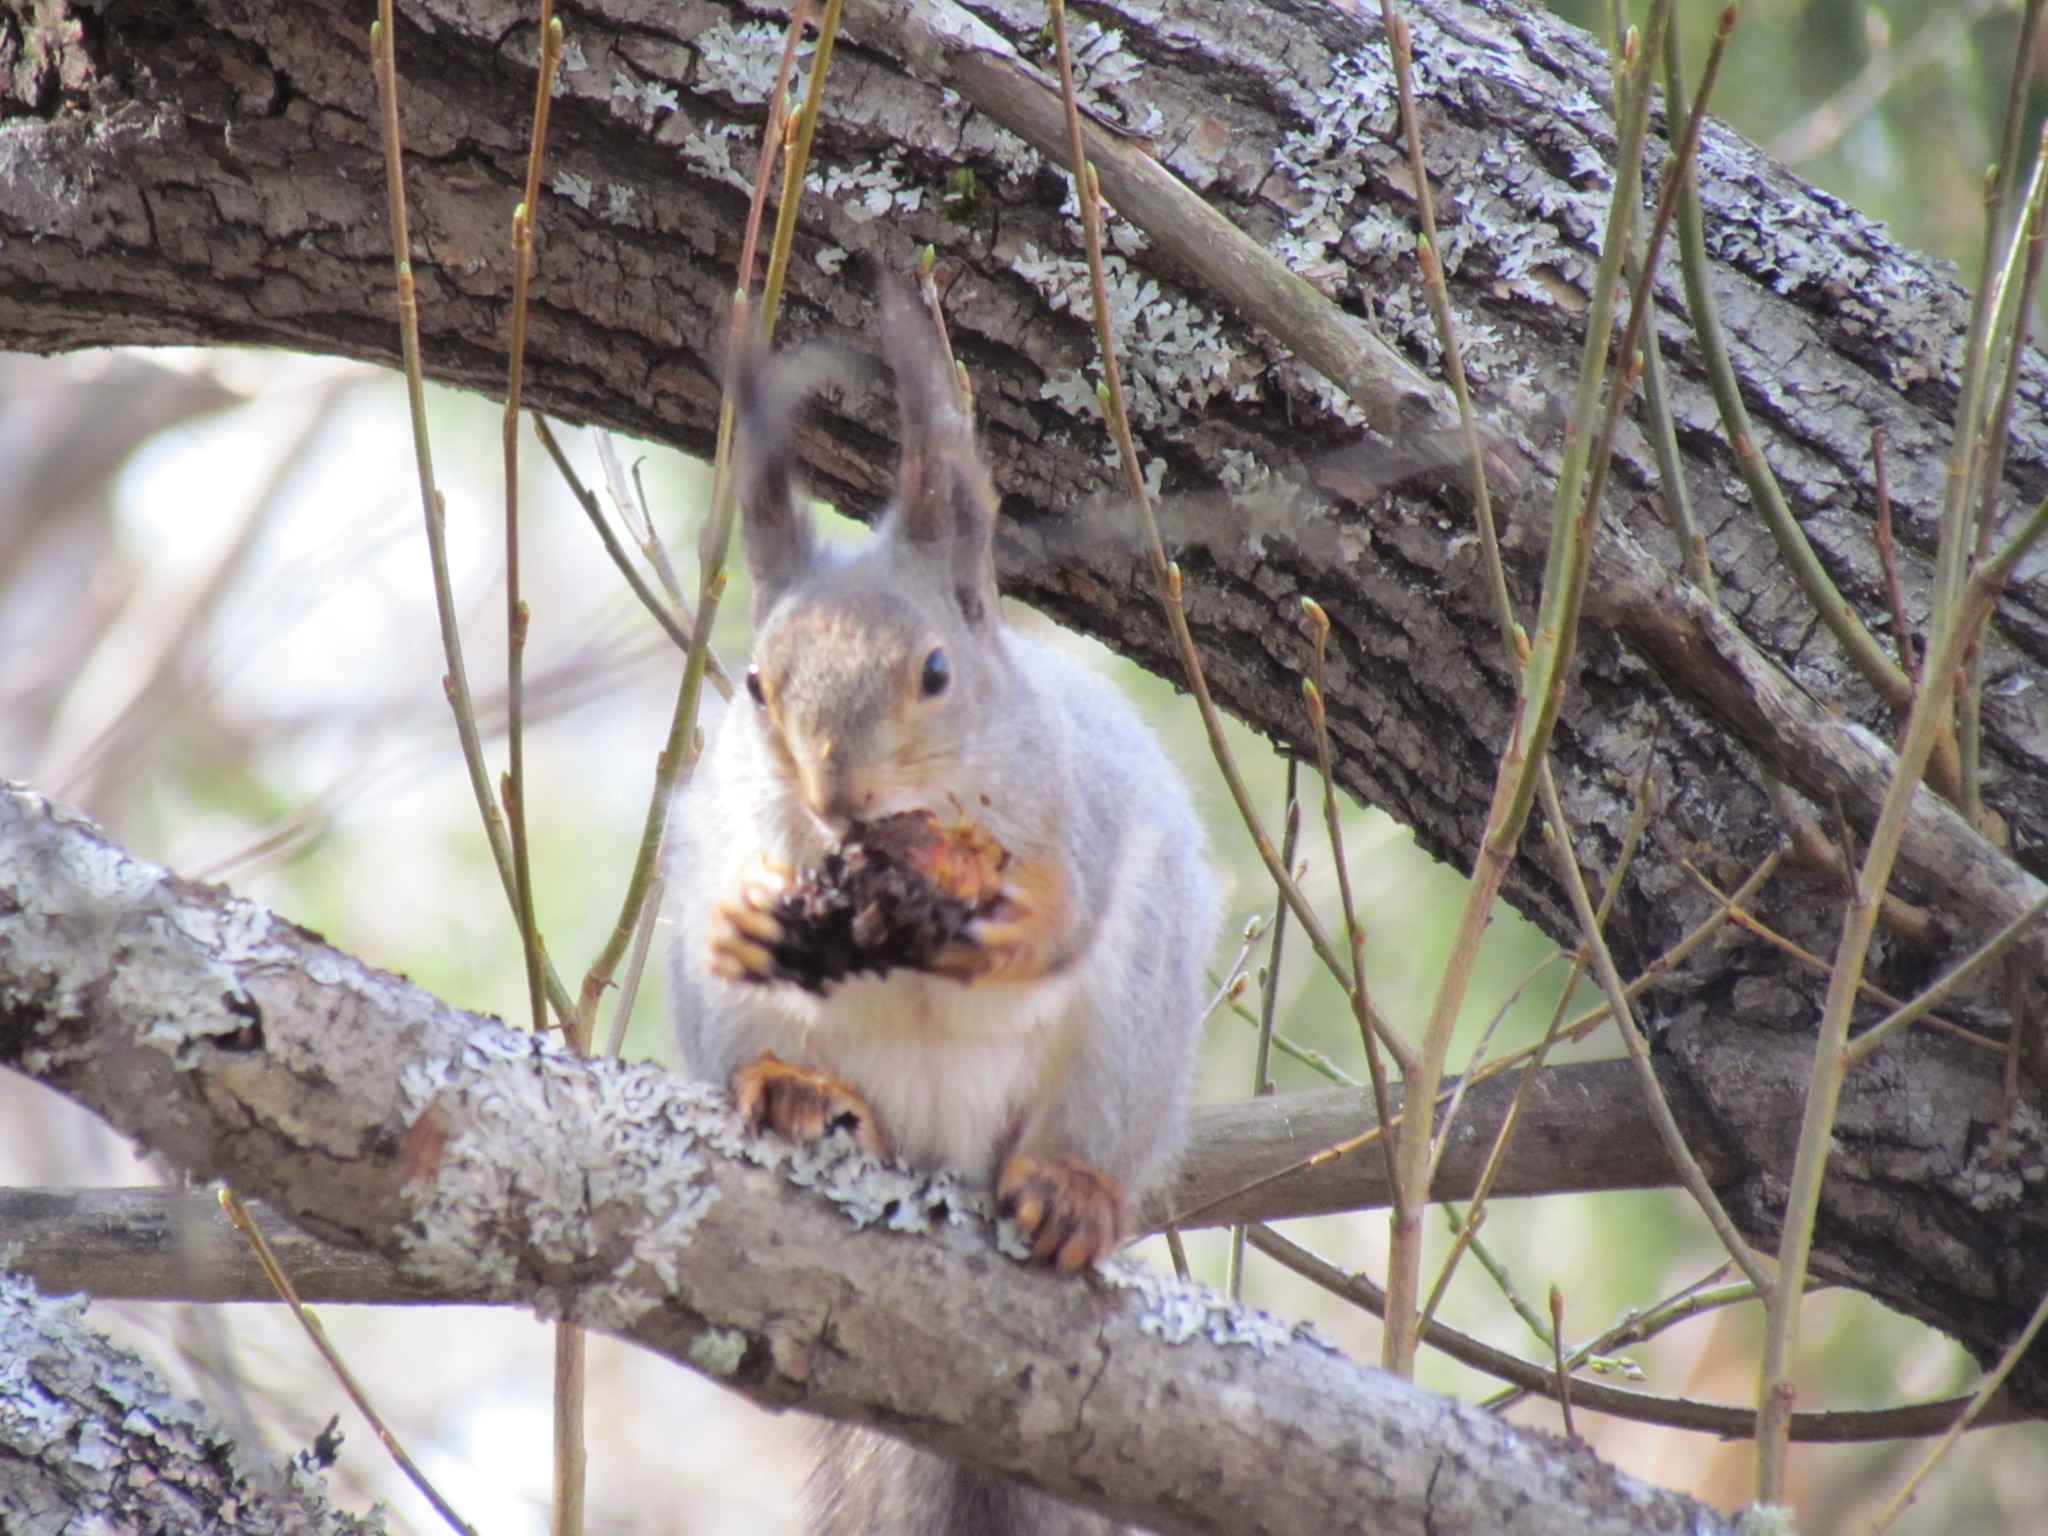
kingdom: Animalia
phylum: Chordata
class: Mammalia
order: Rodentia
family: Sciuridae
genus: Sciurus
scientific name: Sciurus vulgaris
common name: Eurasian red squirrel
